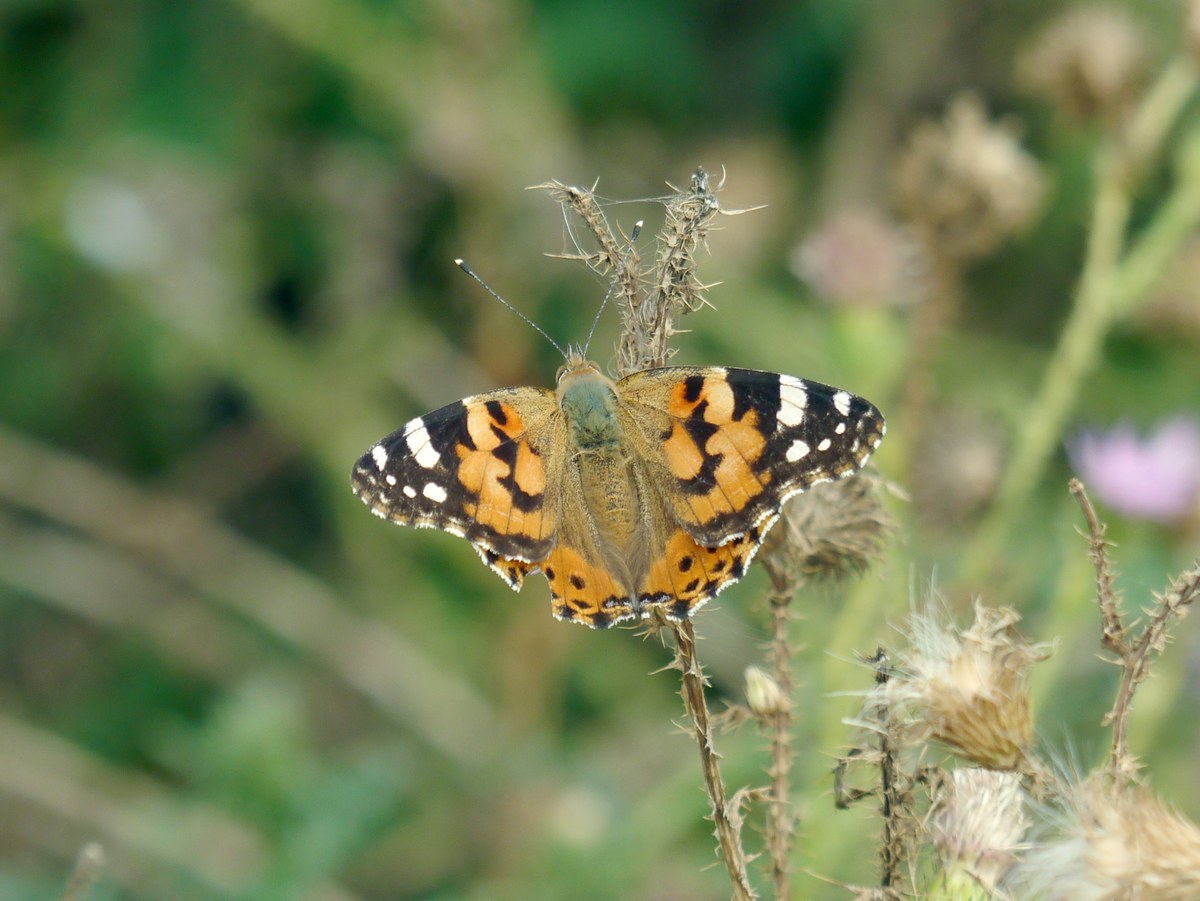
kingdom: Animalia
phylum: Arthropoda
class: Insecta
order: Lepidoptera
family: Nymphalidae
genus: Vanessa
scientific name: Vanessa cardui
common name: Painted lady
